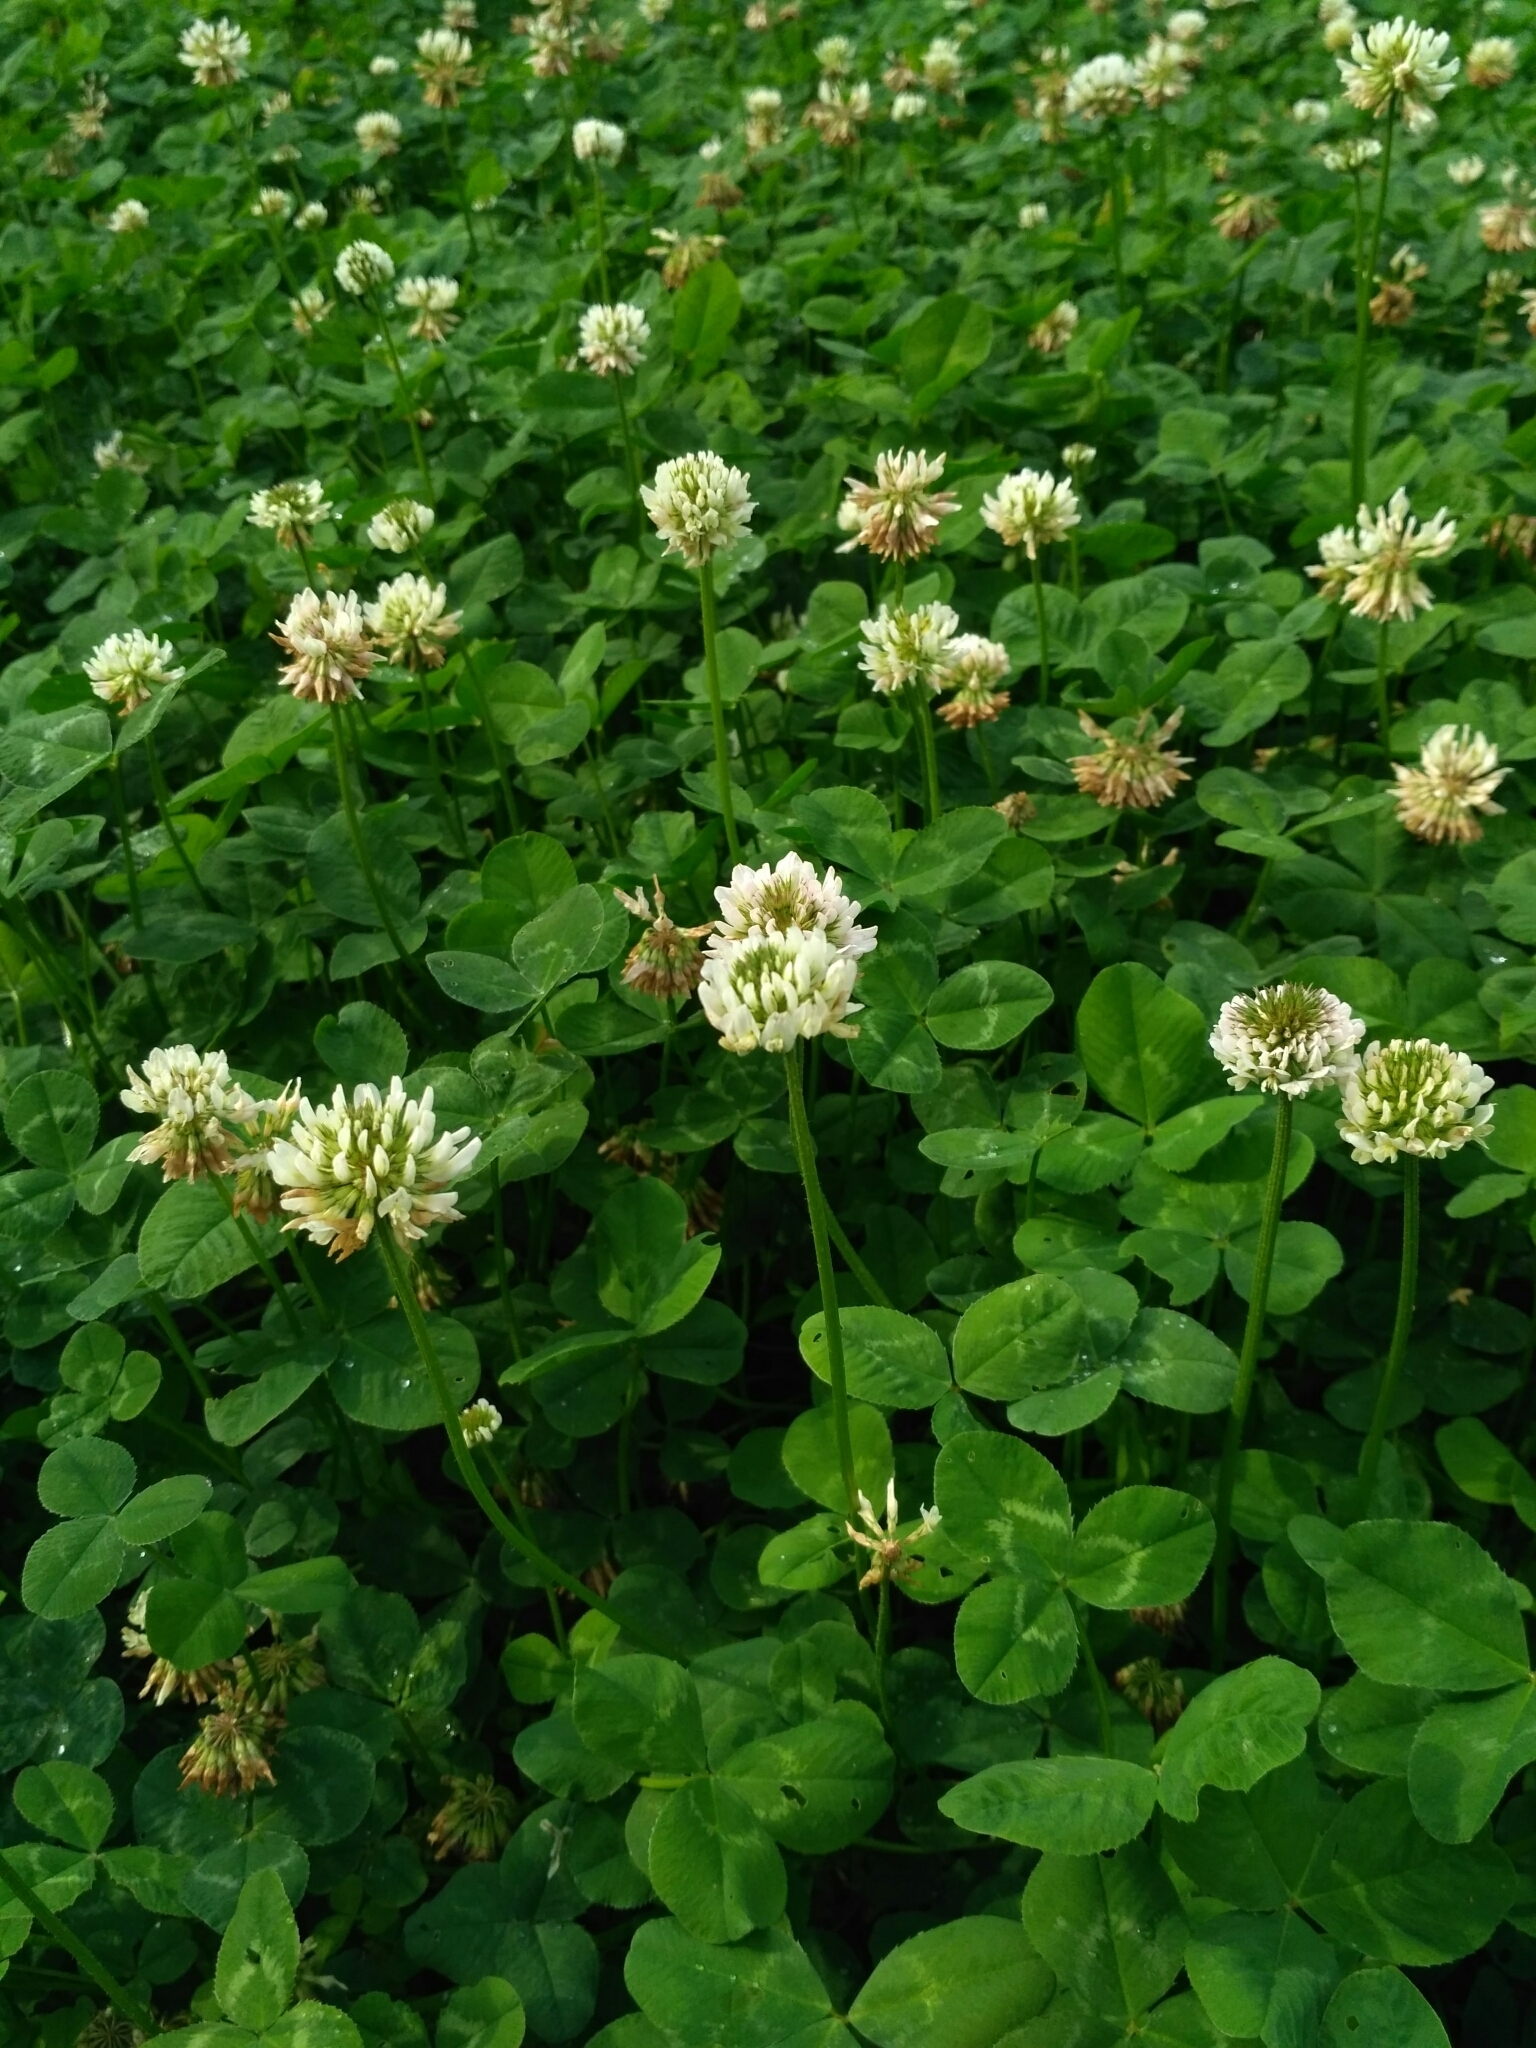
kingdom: Plantae
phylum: Tracheophyta
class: Magnoliopsida
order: Fabales
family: Fabaceae
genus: Trifolium
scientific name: Trifolium repens
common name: White clover
